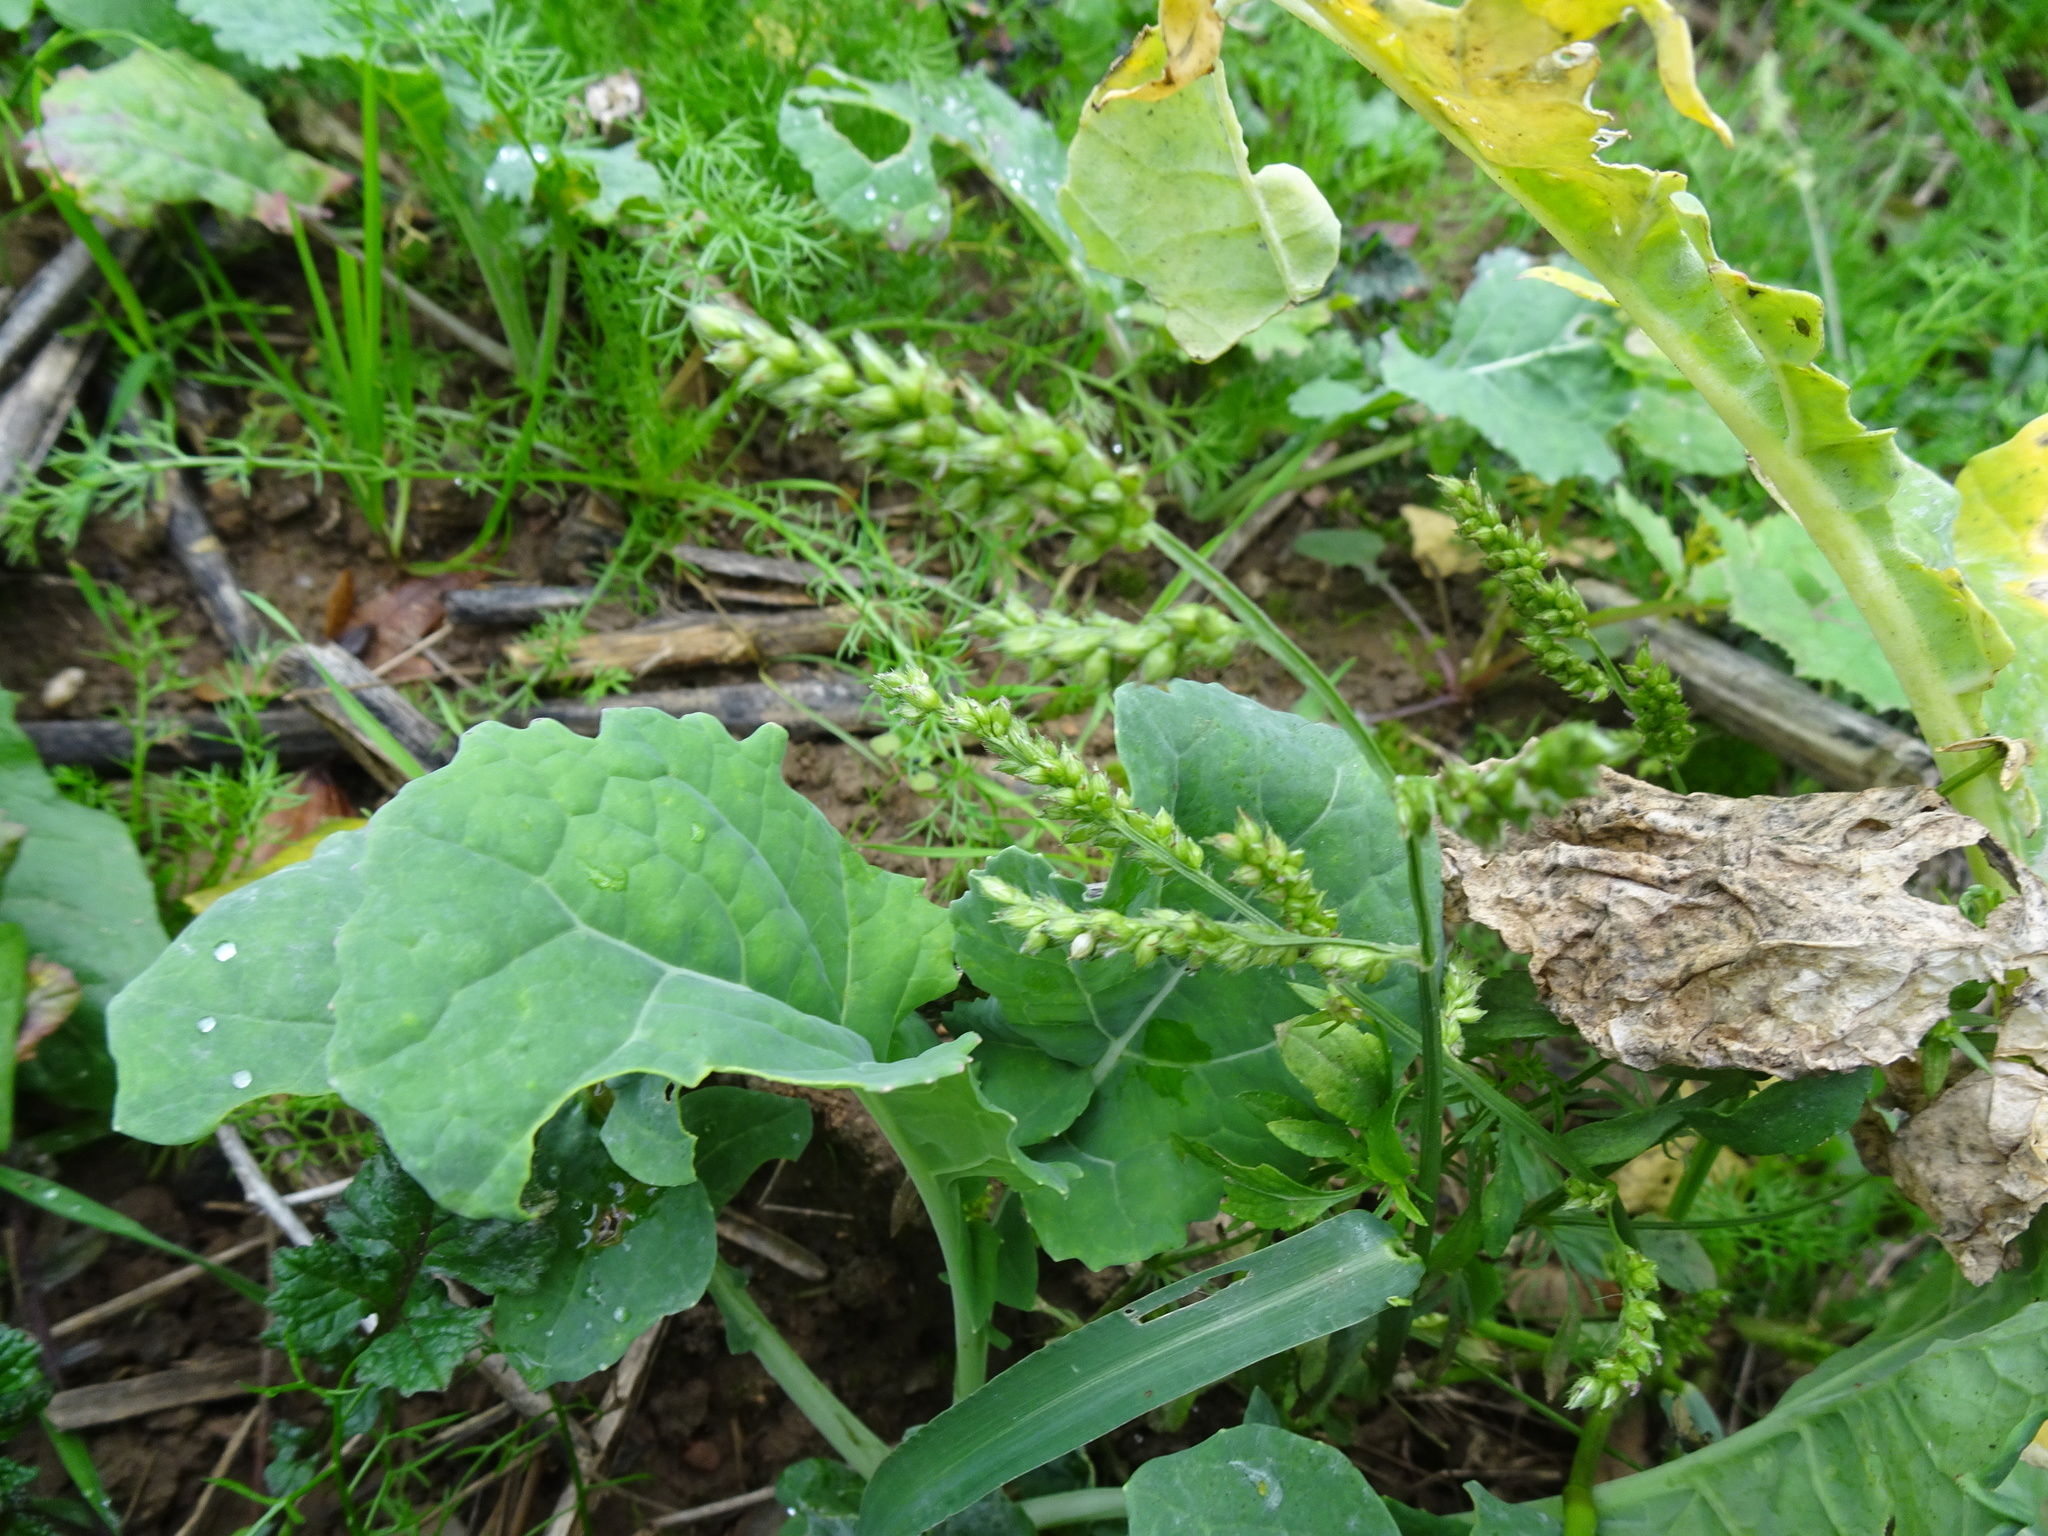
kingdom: Plantae
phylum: Tracheophyta
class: Liliopsida
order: Poales
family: Poaceae
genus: Echinochloa
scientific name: Echinochloa crus-galli
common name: Cockspur
